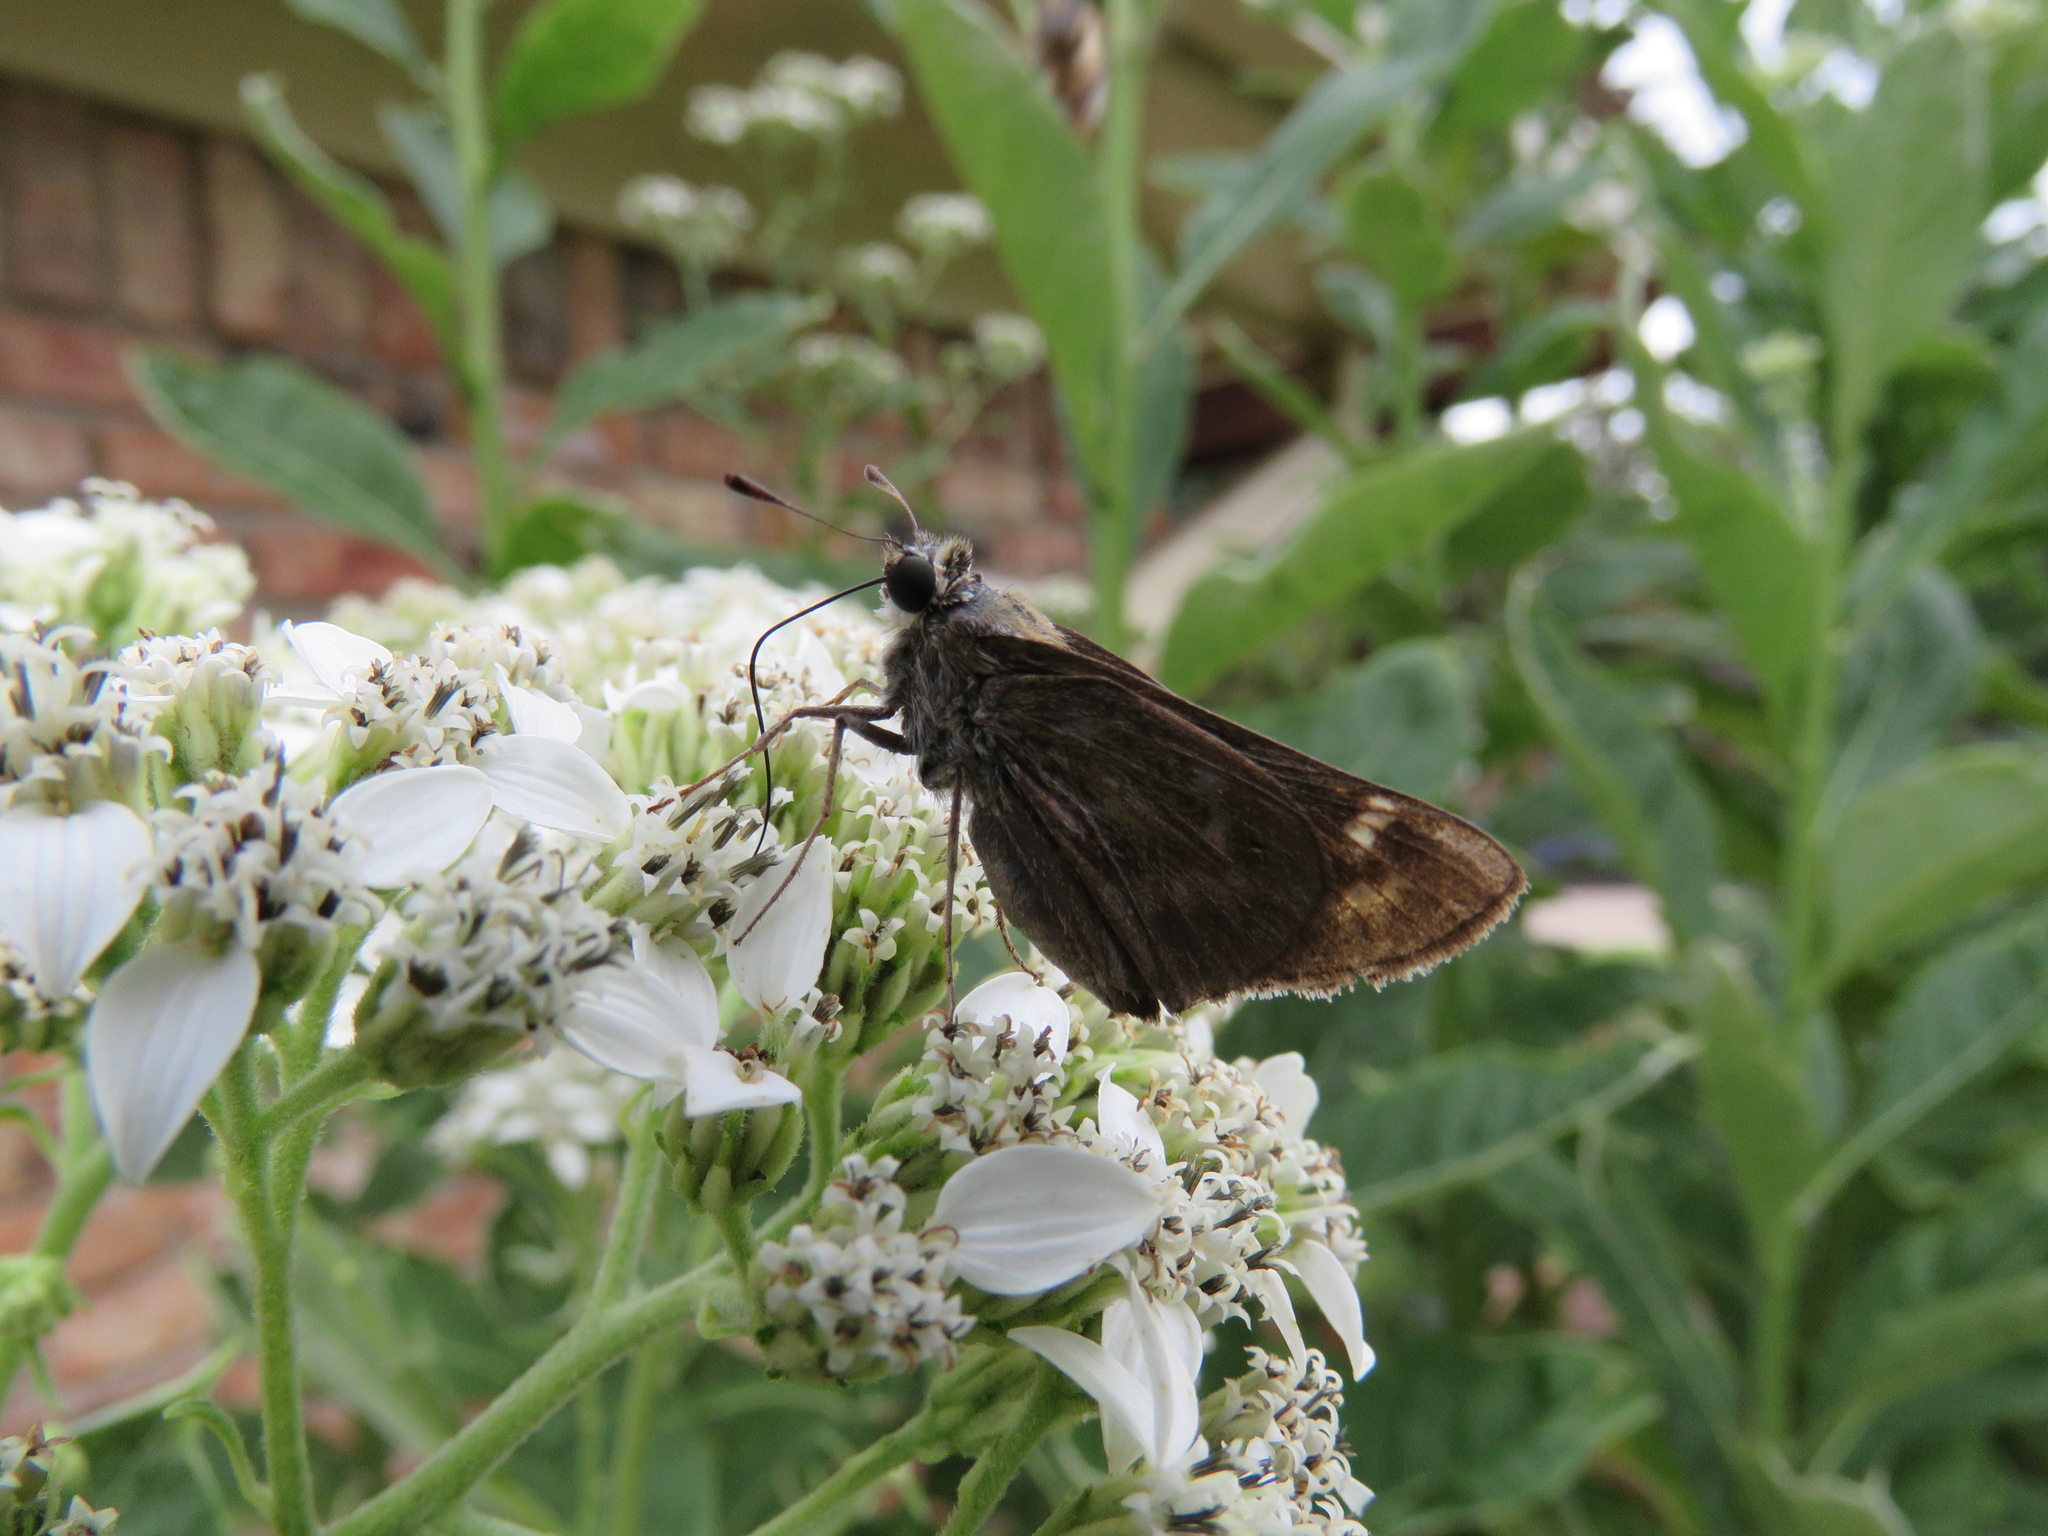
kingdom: Animalia
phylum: Arthropoda
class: Insecta
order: Lepidoptera
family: Hesperiidae
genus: Atalopedes
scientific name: Atalopedes
